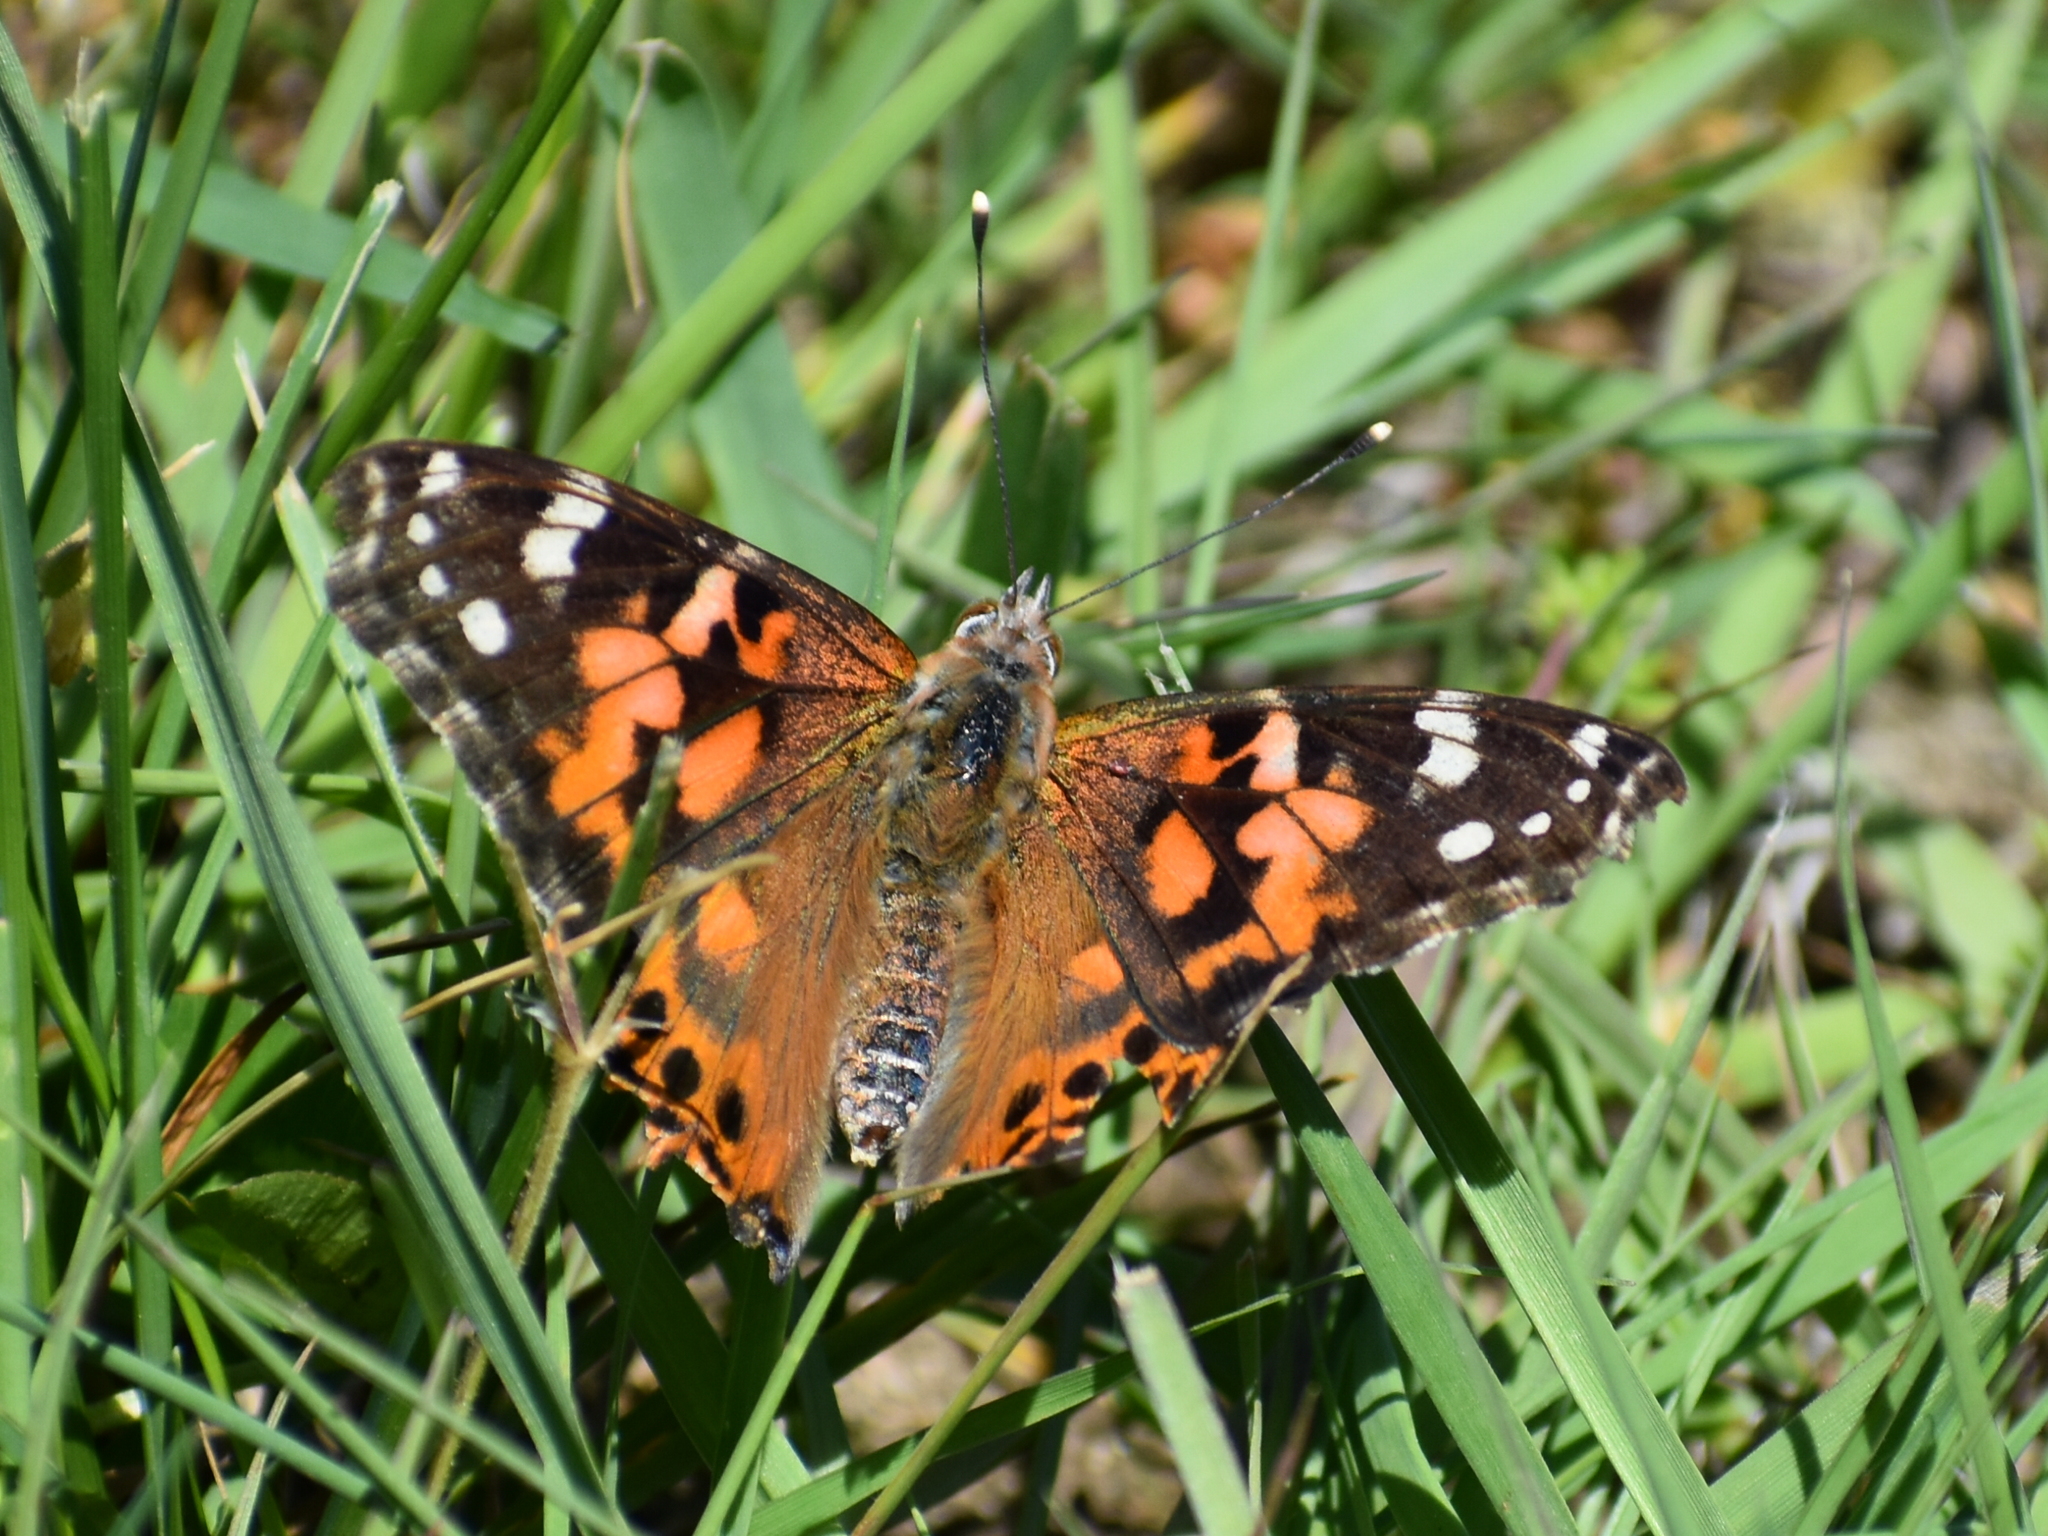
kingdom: Animalia
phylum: Arthropoda
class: Insecta
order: Lepidoptera
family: Nymphalidae
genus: Vanessa
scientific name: Vanessa cardui
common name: Painted lady
